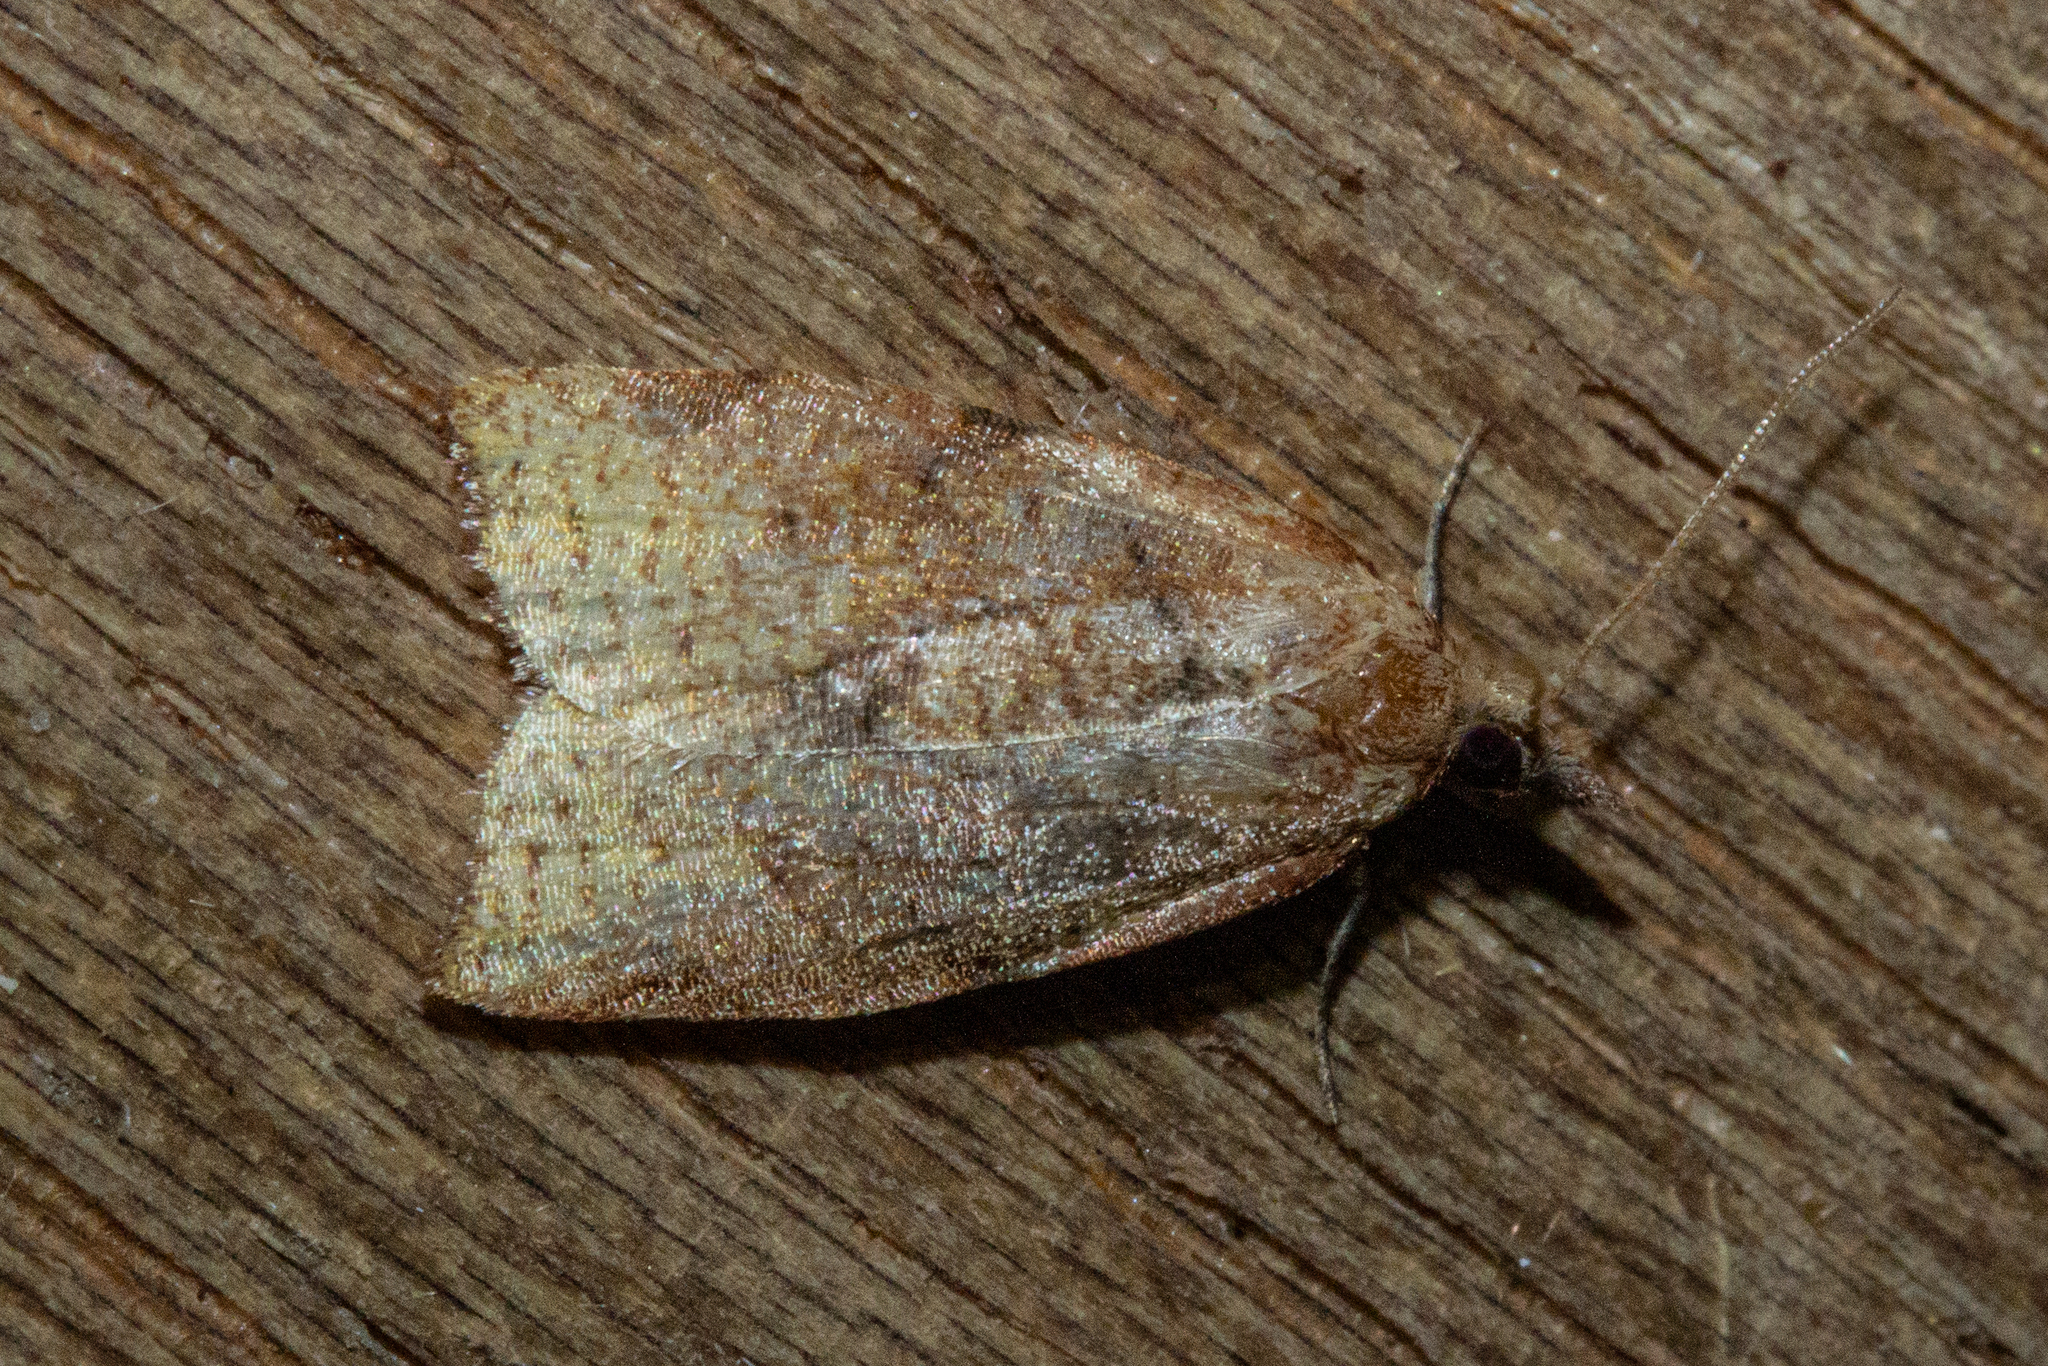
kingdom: Animalia
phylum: Arthropoda
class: Insecta
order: Lepidoptera
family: Tortricidae
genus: Apoctena
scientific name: Apoctena flavescens
